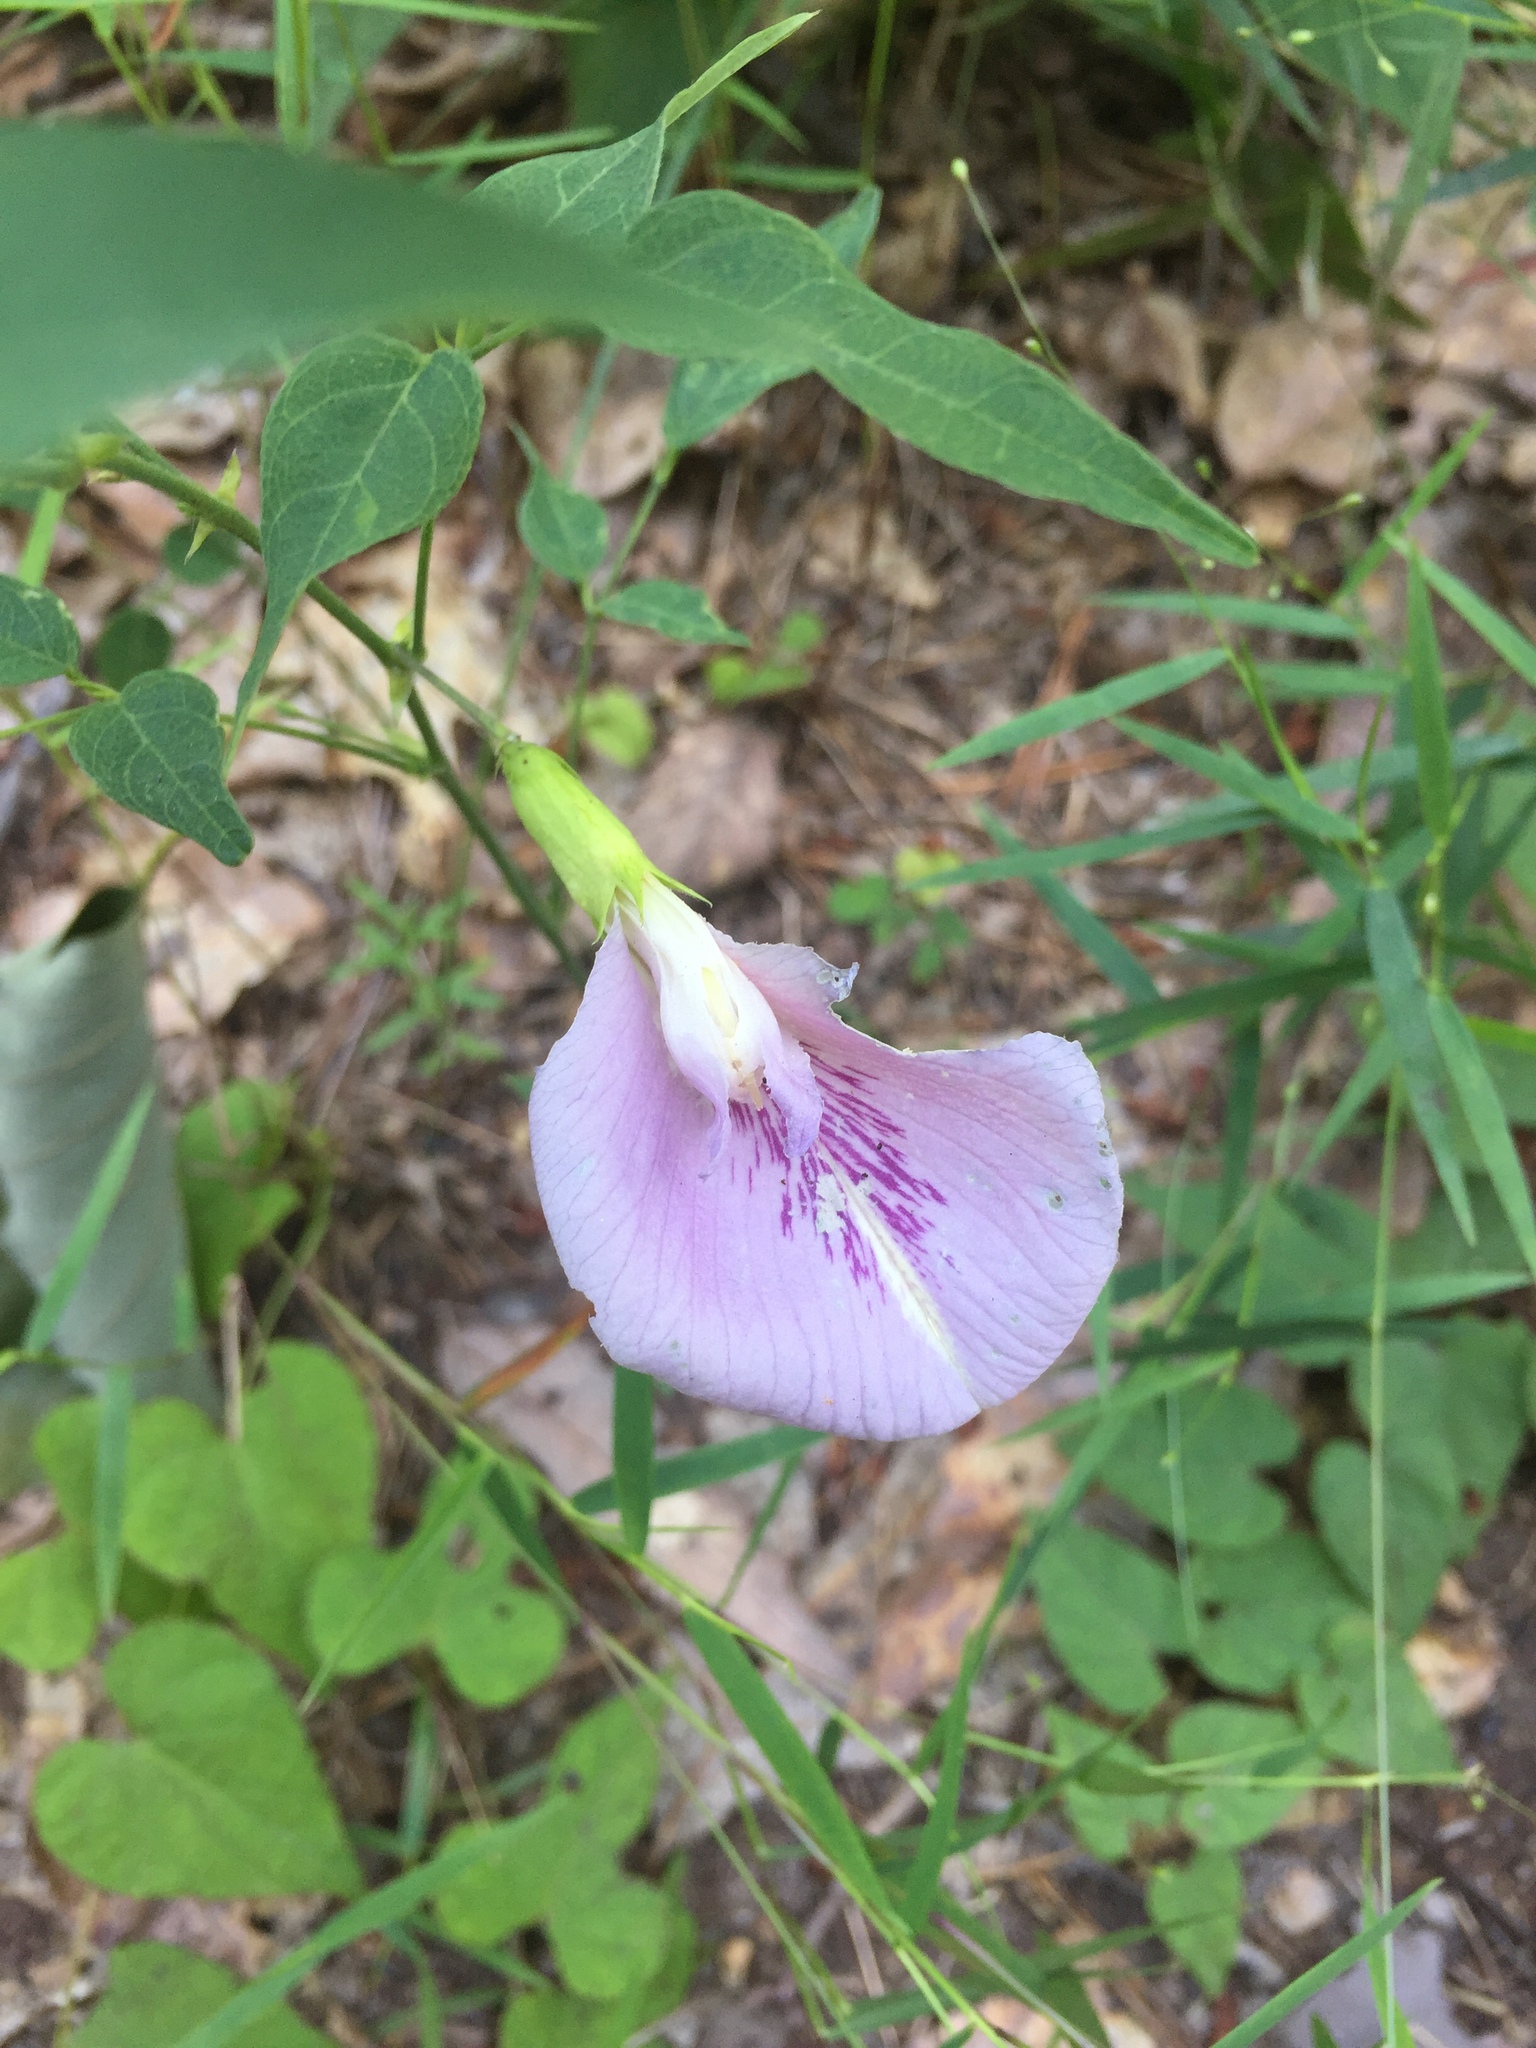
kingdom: Plantae
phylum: Tracheophyta
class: Magnoliopsida
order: Fabales
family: Fabaceae
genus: Centrosema
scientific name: Centrosema virginianum
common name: Butterfly-pea
